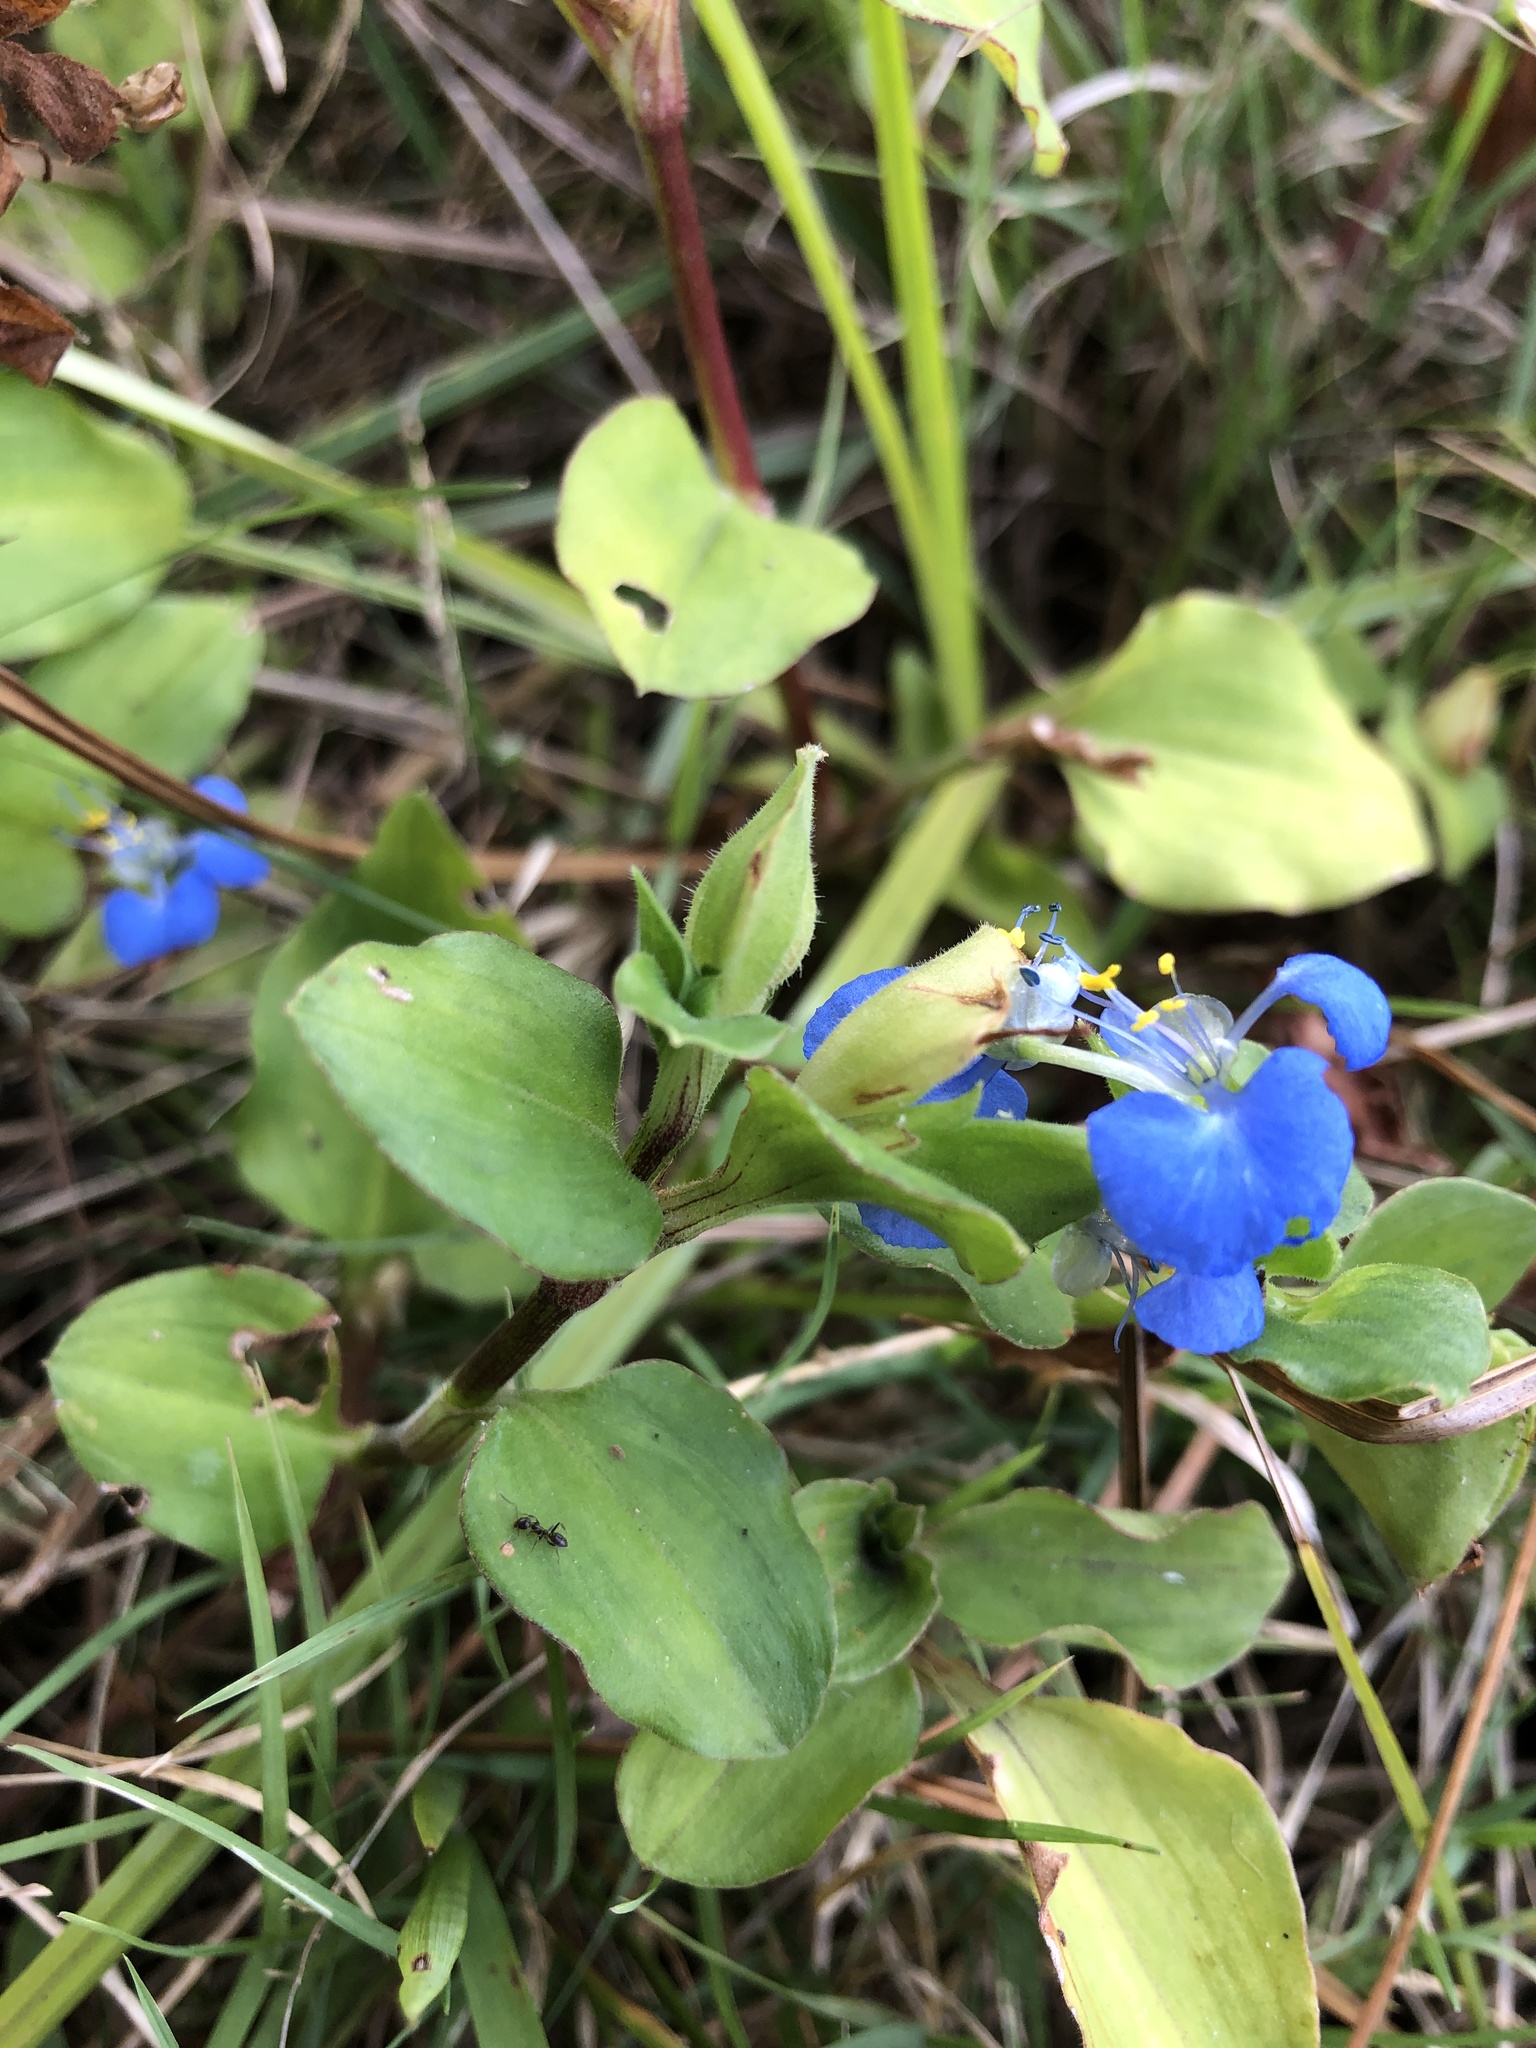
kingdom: Plantae
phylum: Tracheophyta
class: Liliopsida
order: Commelinales
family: Commelinaceae
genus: Commelina
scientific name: Commelina benghalensis
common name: Jio
